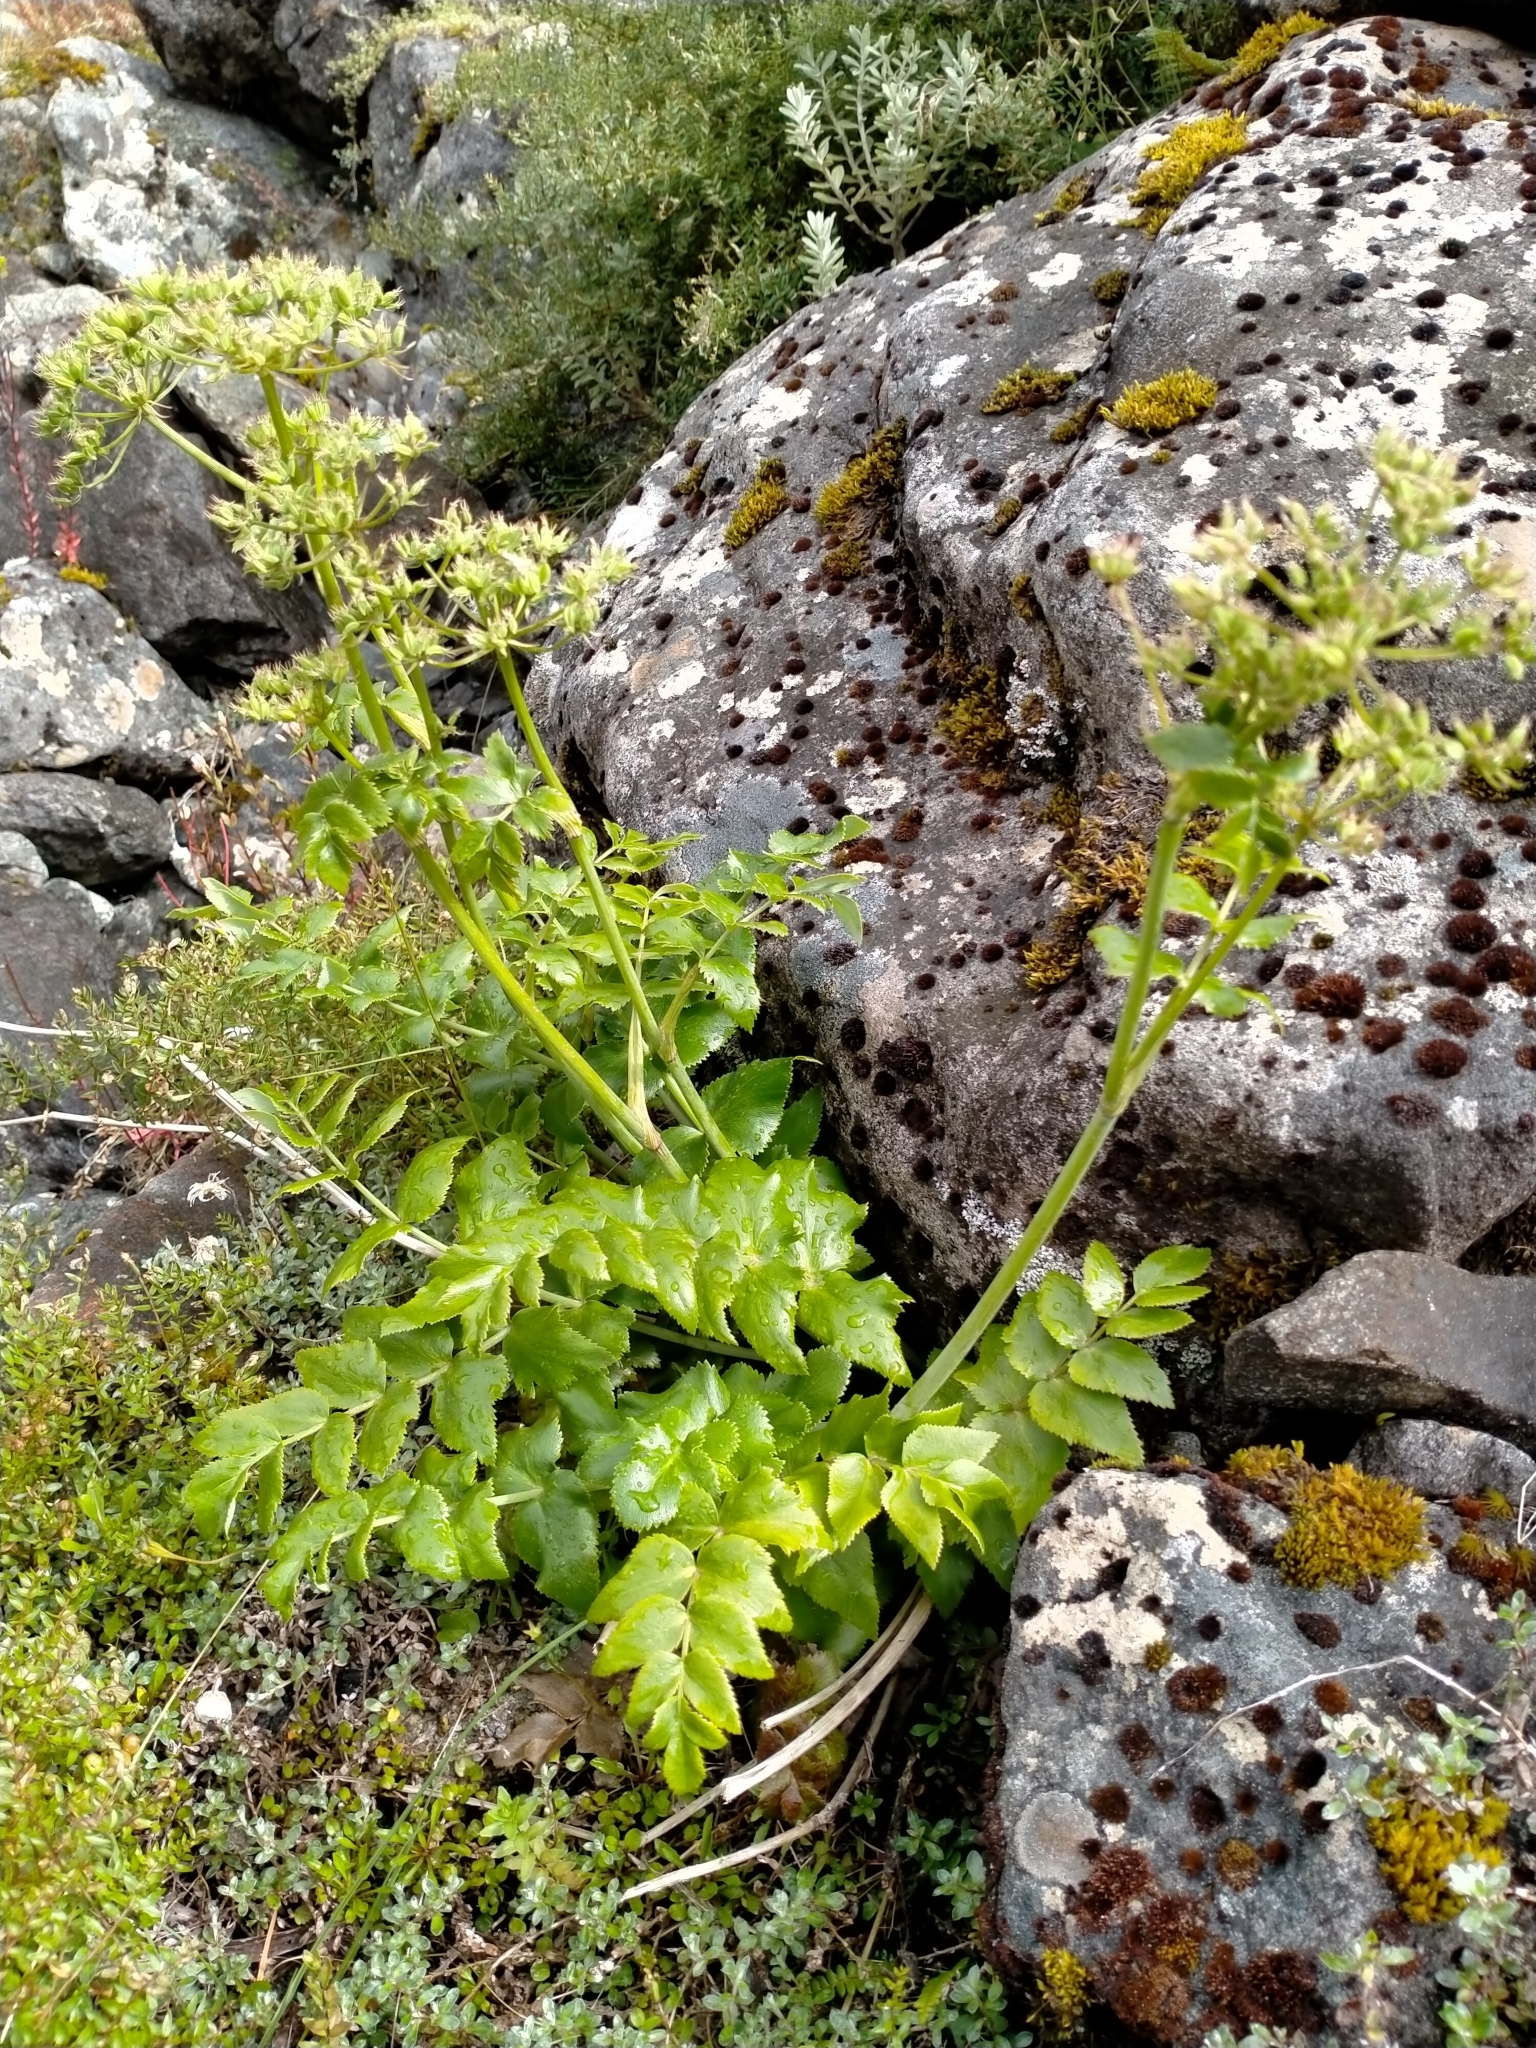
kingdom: Plantae
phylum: Tracheophyta
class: Magnoliopsida
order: Apiales
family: Apiaceae
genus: Gingidia
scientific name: Gingidia montana
